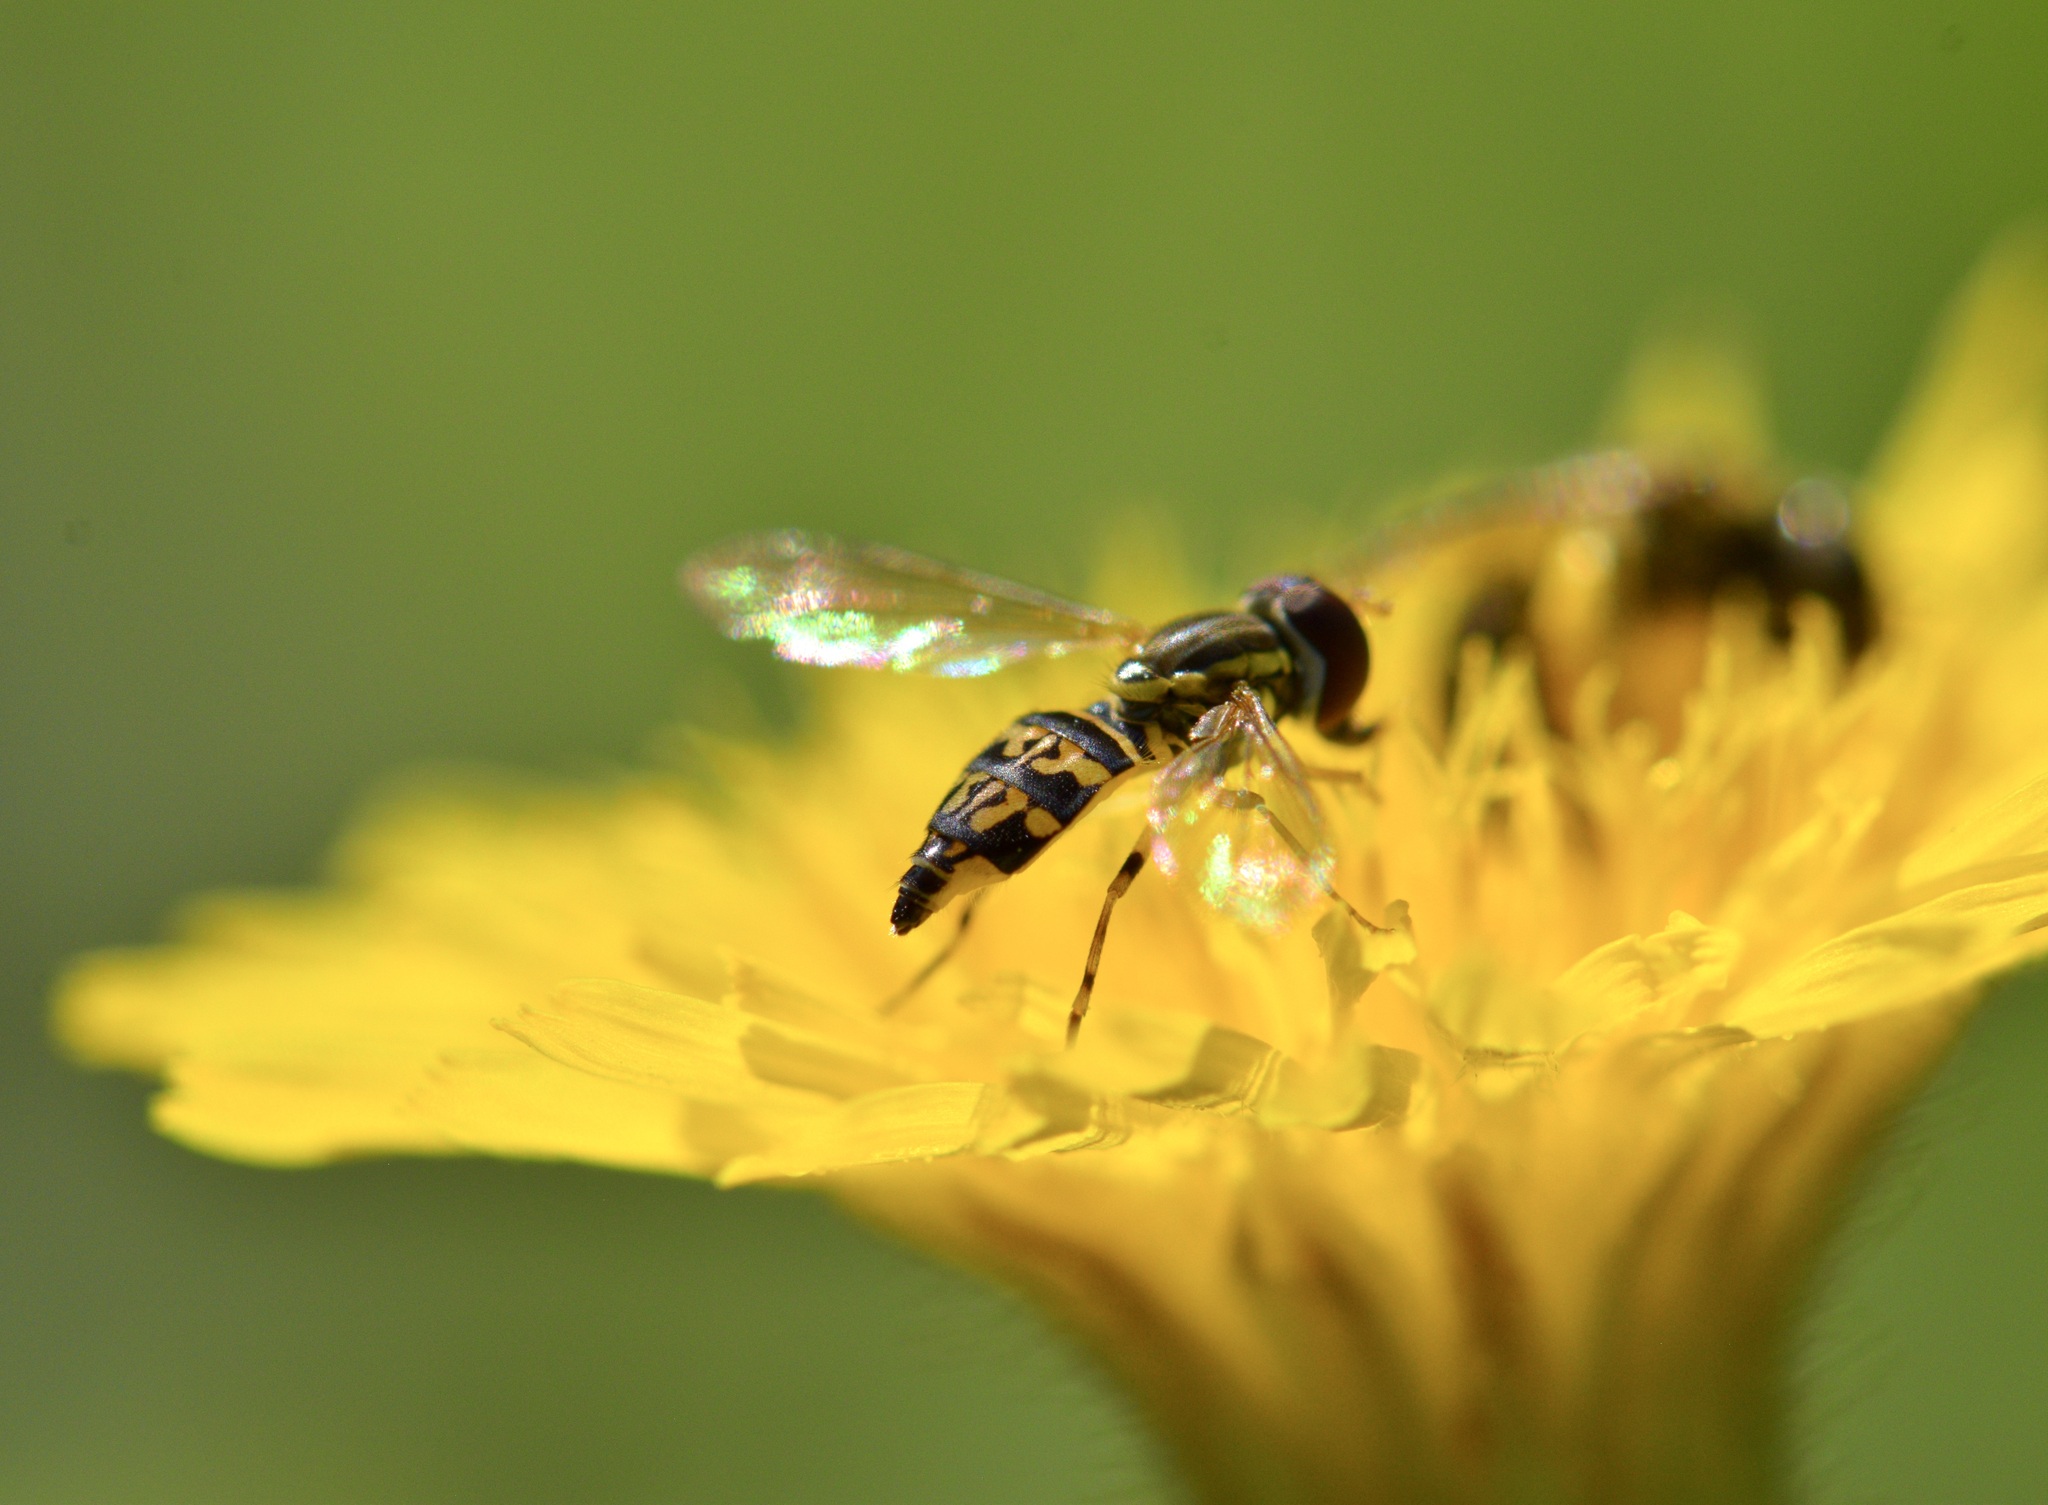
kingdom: Animalia
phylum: Arthropoda
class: Insecta
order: Diptera
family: Syrphidae
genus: Toxomerus
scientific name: Toxomerus geminatus
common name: Eastern calligrapher
